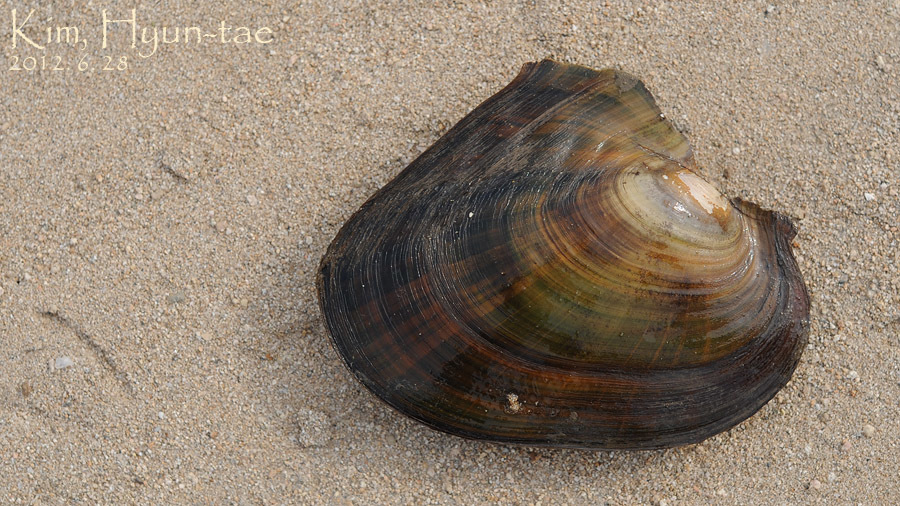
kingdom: Animalia
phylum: Mollusca
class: Bivalvia
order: Unionida
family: Unionidae
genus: Cristaria
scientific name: Cristaria plicata
